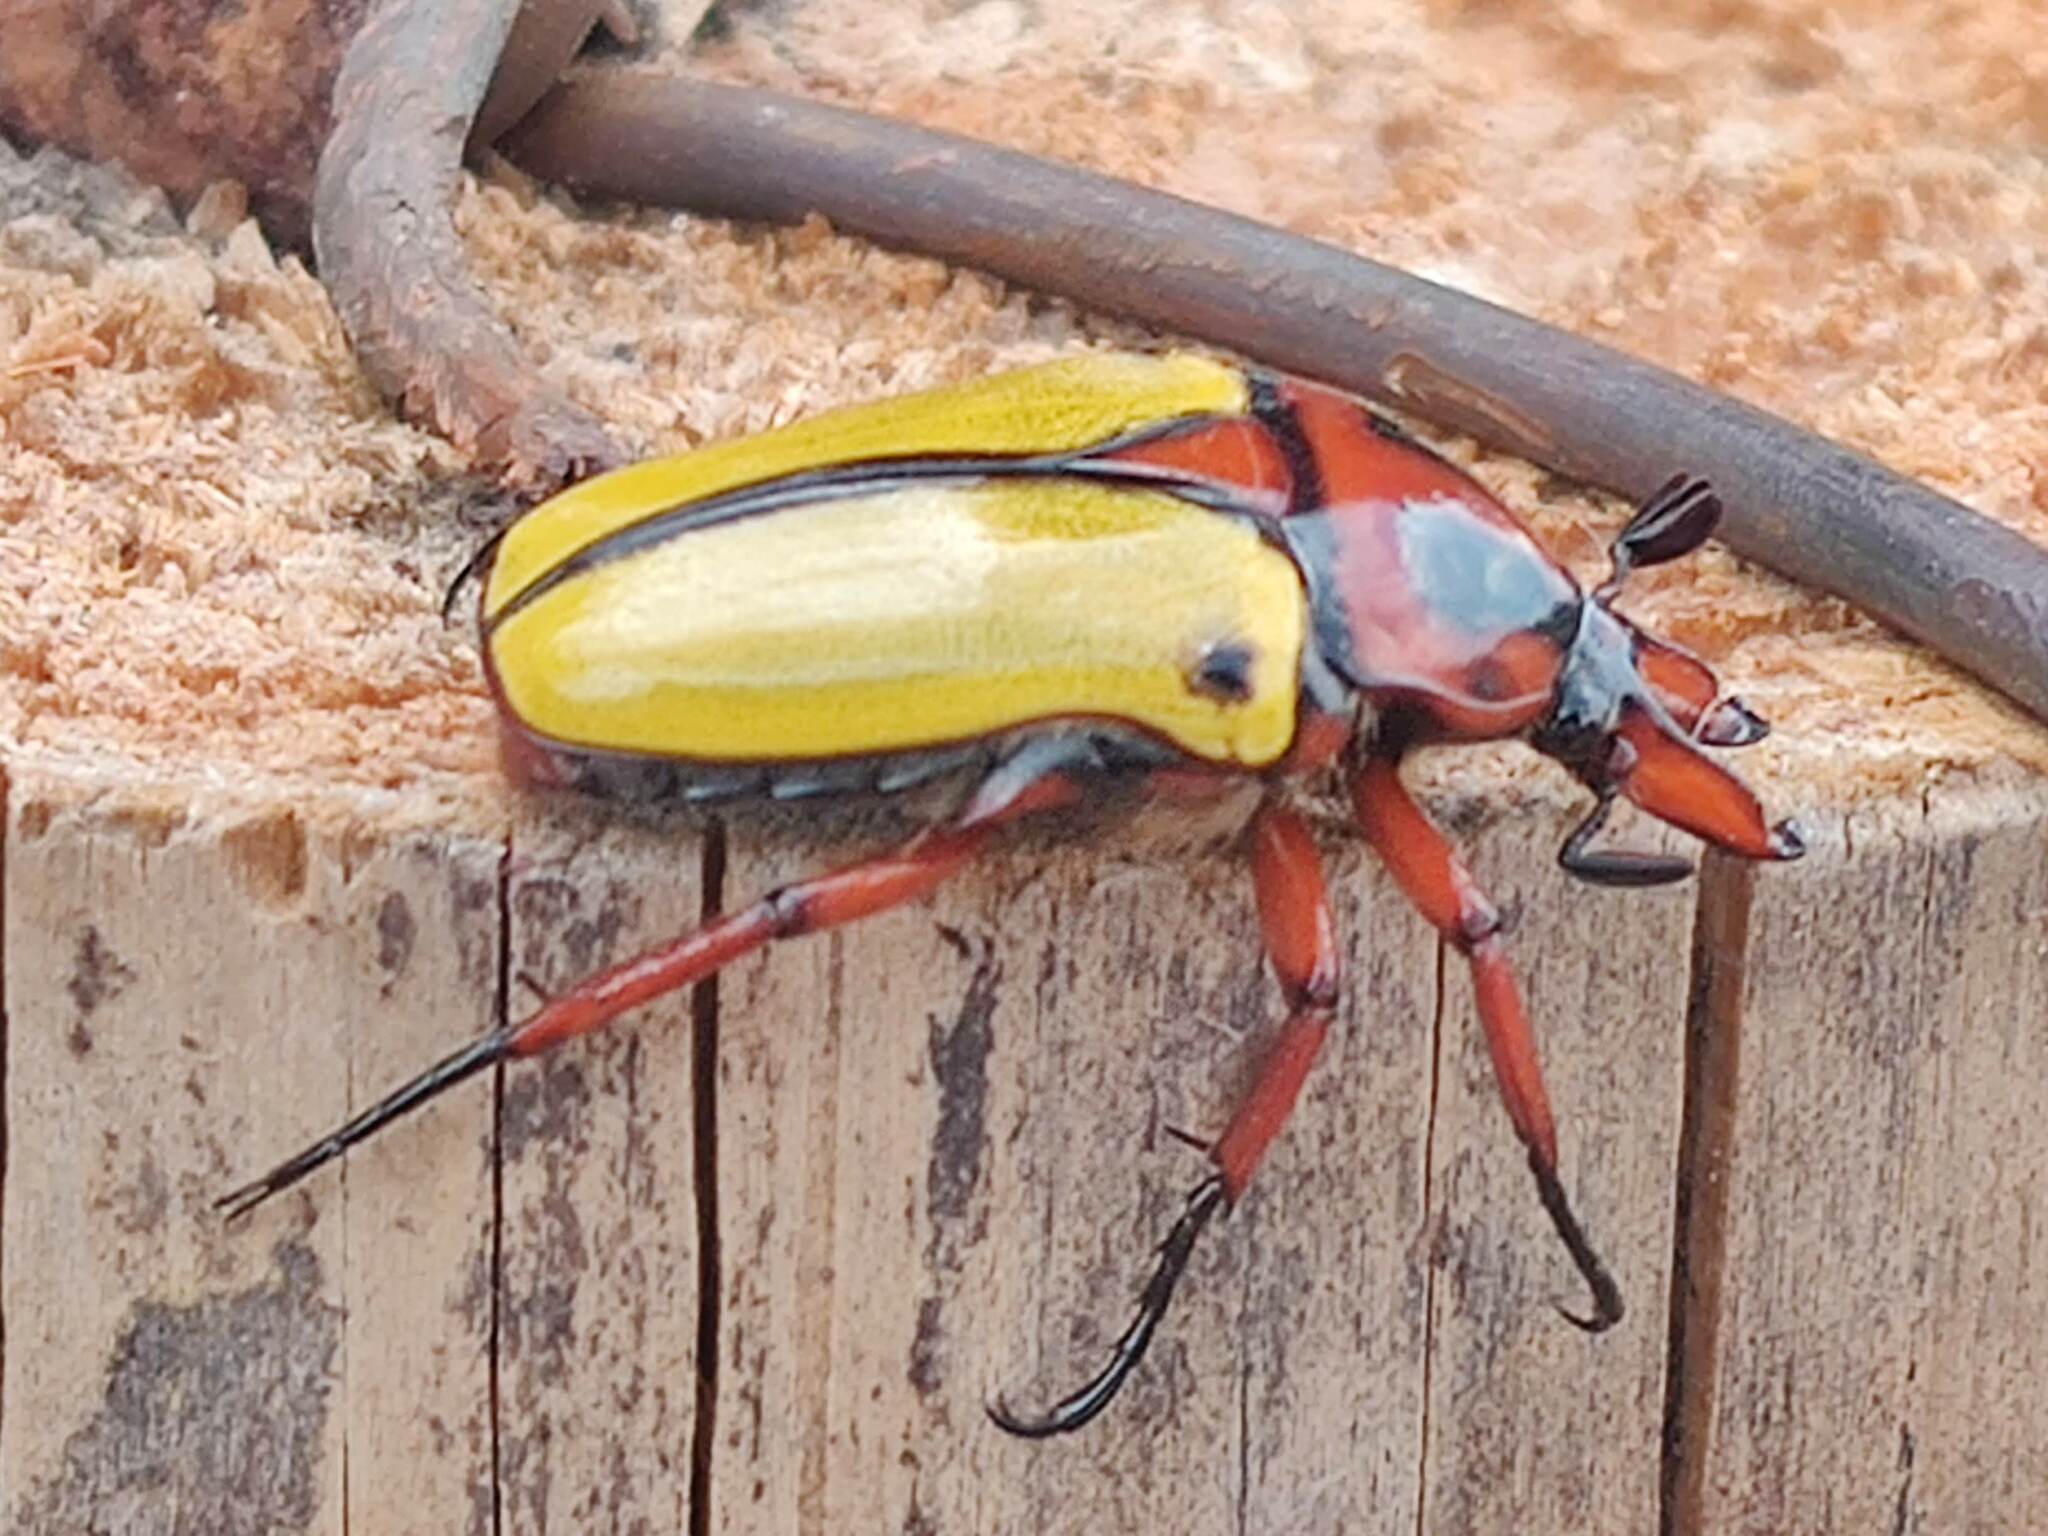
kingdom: Animalia
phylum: Arthropoda
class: Insecta
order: Coleoptera
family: Scarabaeidae
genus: Anisorrhina
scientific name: Anisorrhina algoensis
